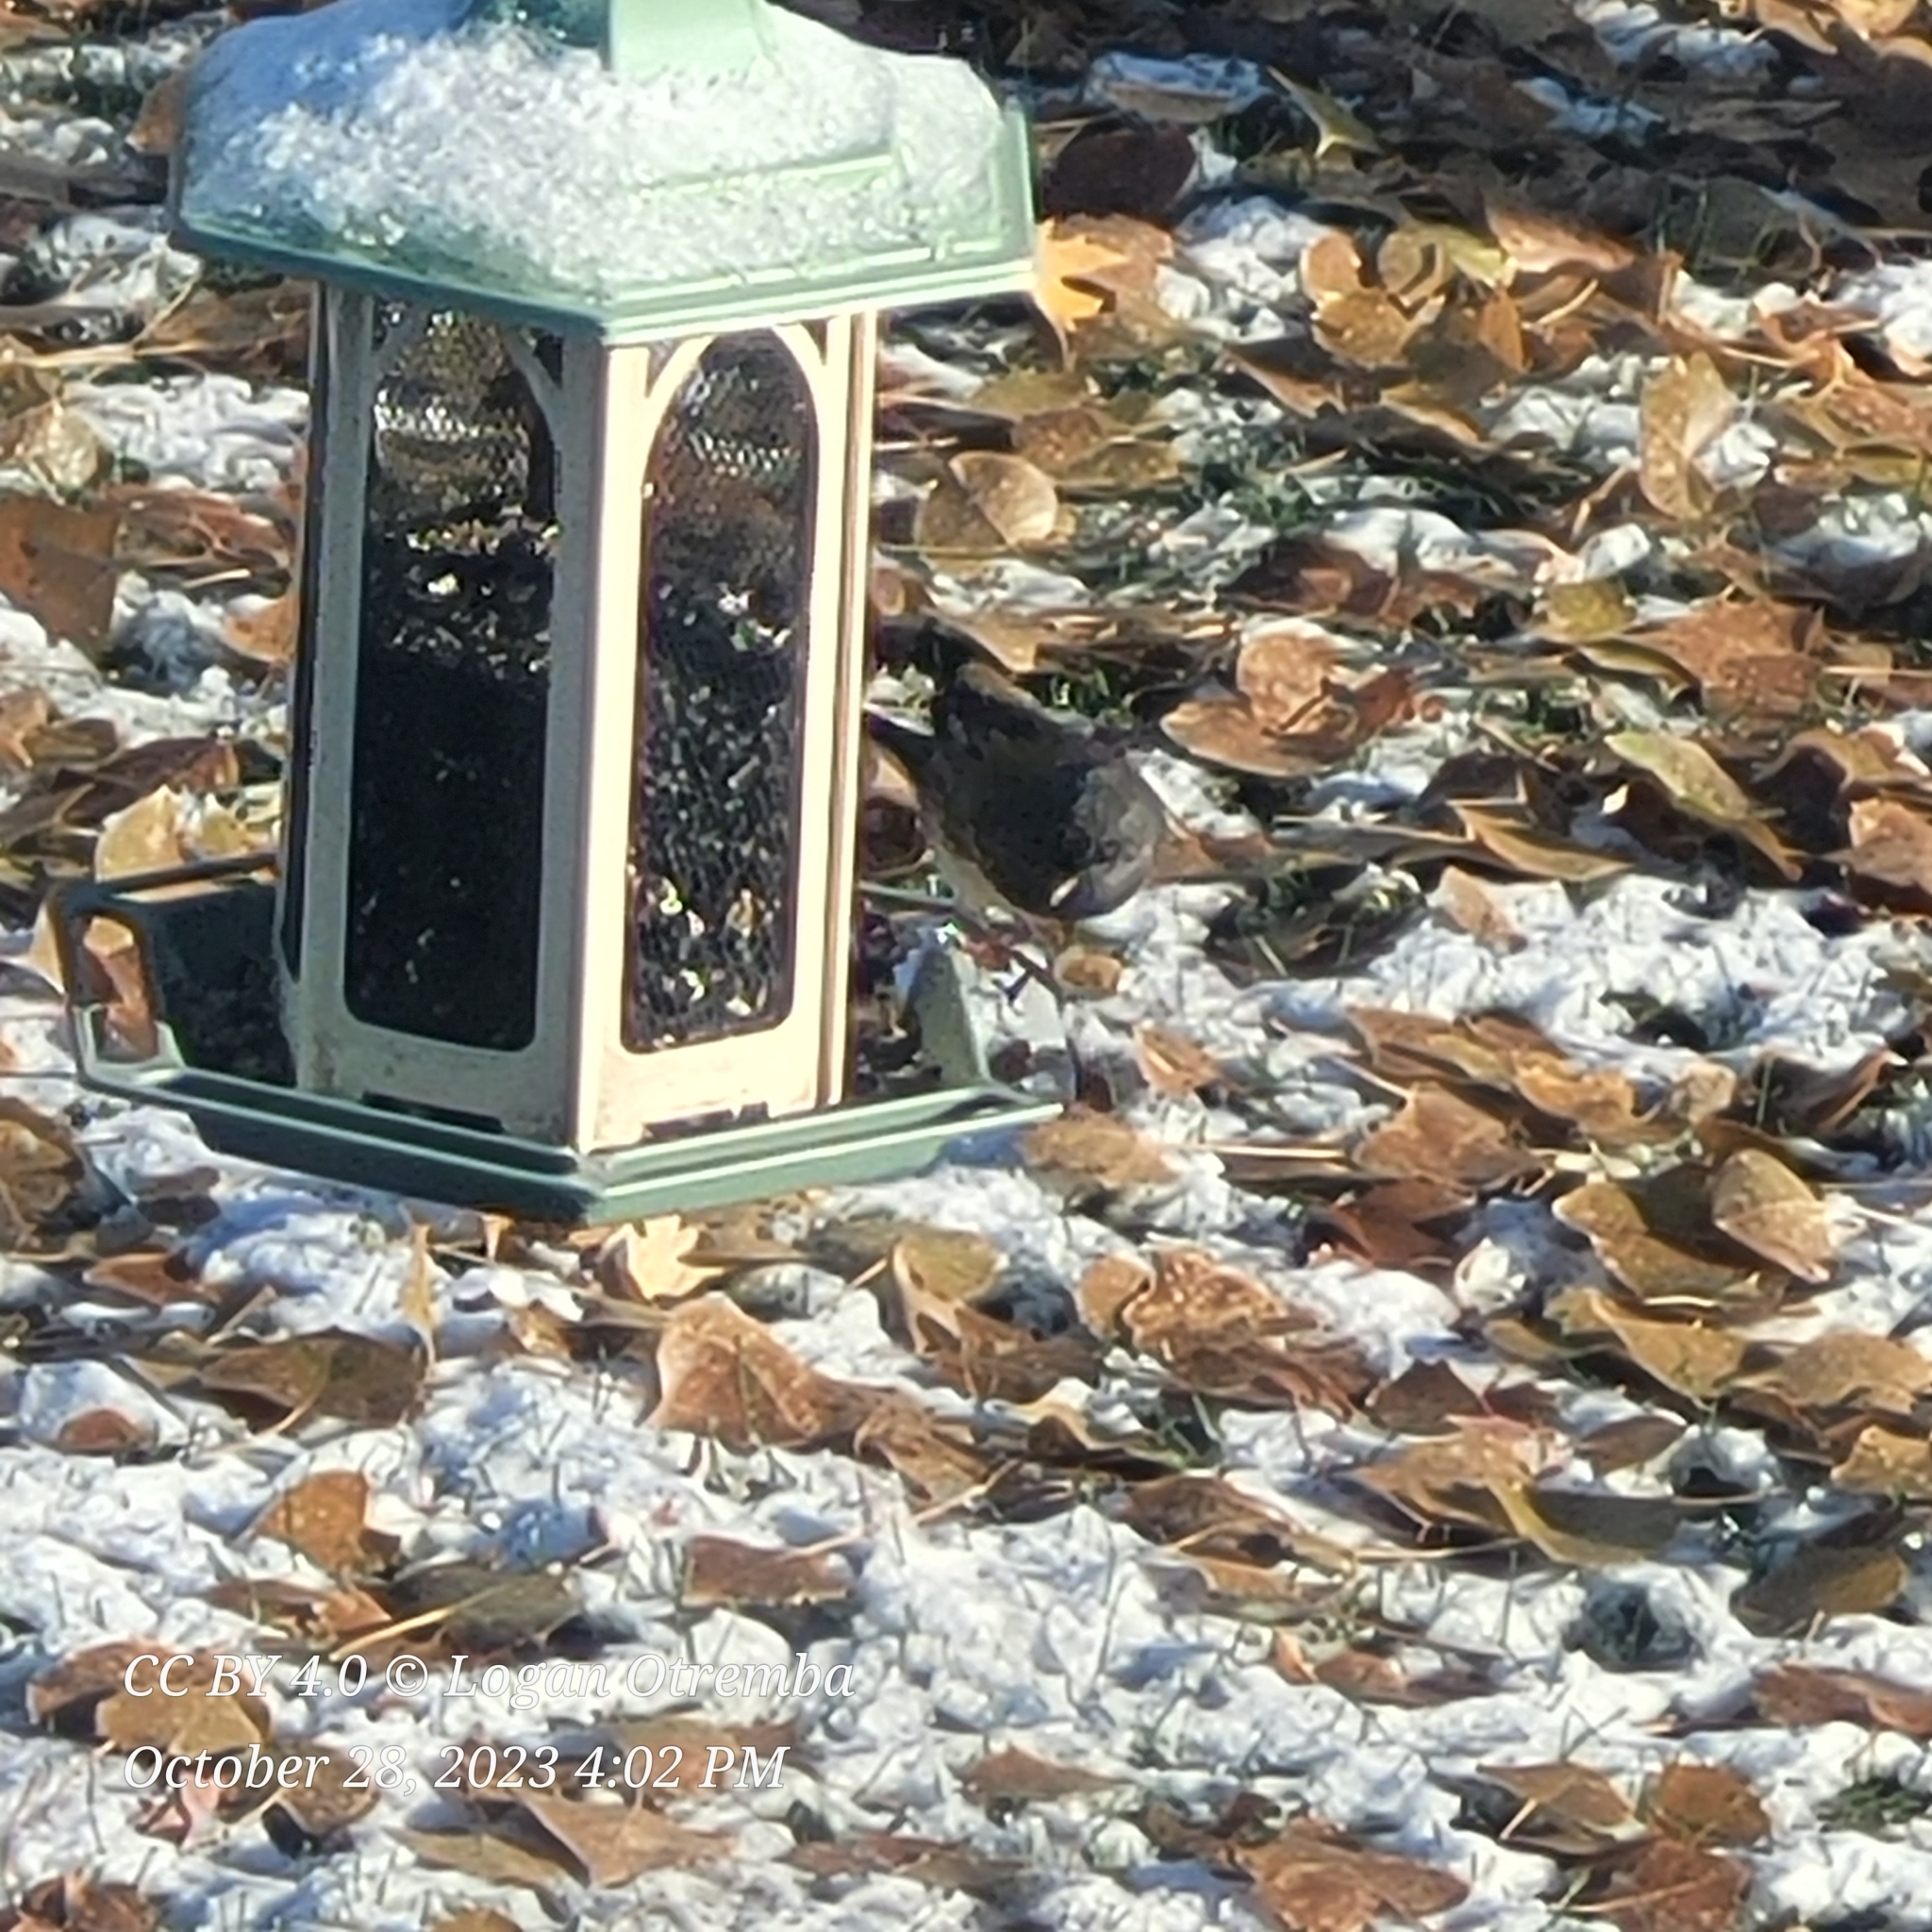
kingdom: Animalia
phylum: Chordata
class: Aves
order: Passeriformes
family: Passerellidae
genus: Junco
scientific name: Junco hyemalis
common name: Dark-eyed junco
